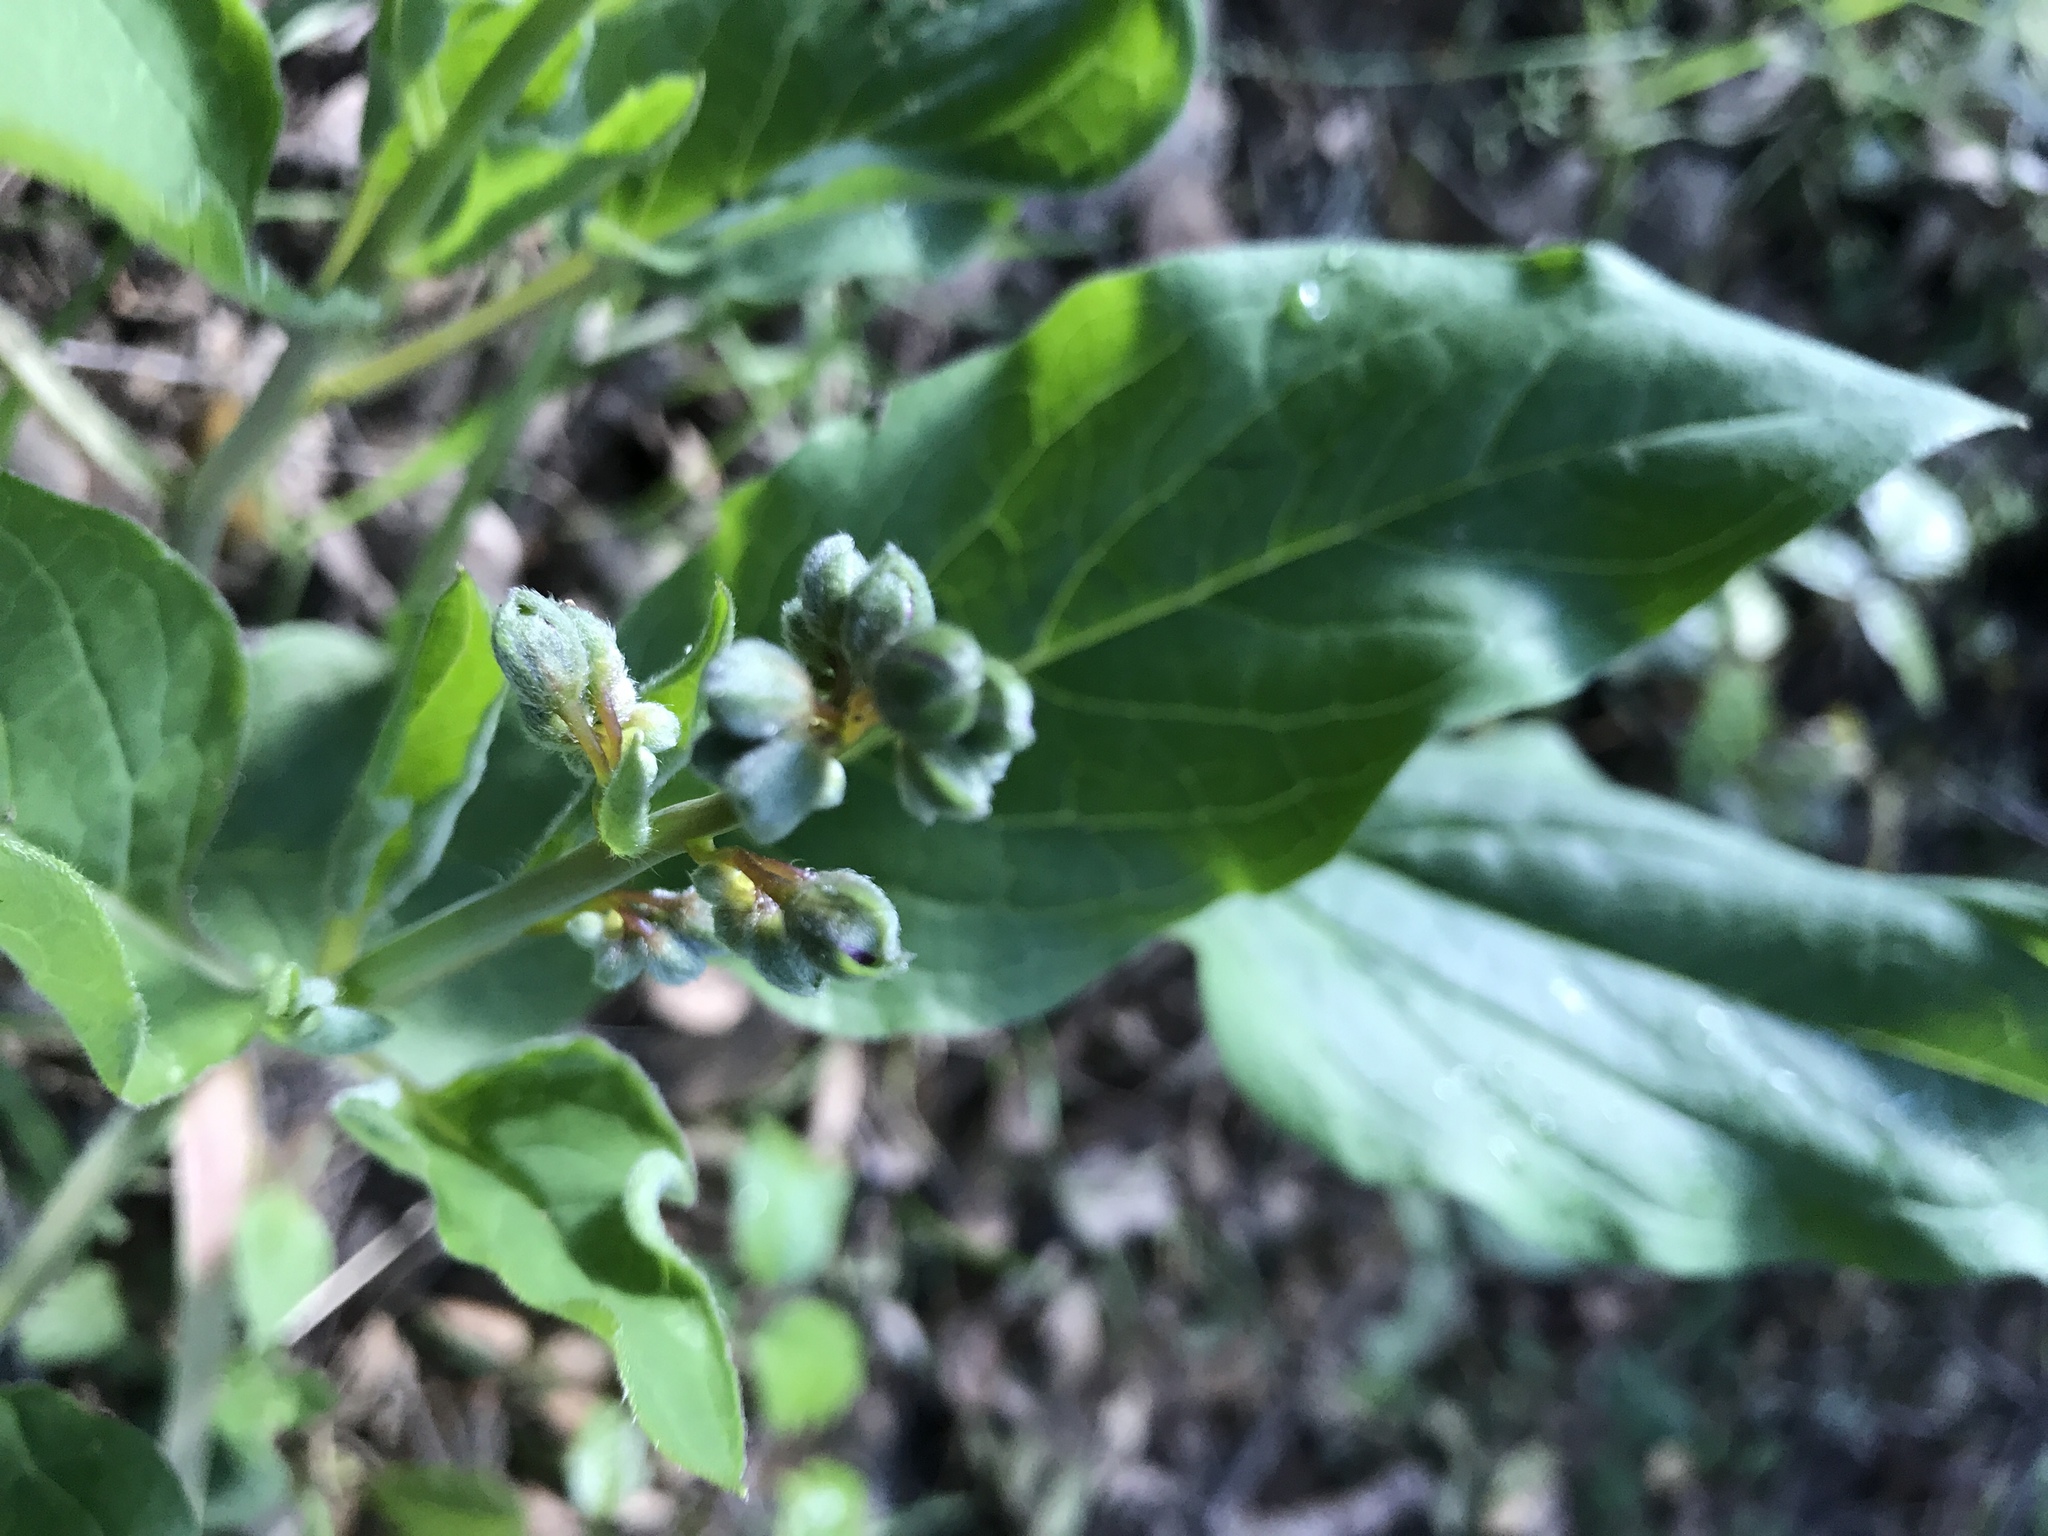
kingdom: Plantae
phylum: Tracheophyta
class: Magnoliopsida
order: Boraginales
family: Boraginaceae
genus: Adelinia
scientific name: Adelinia grande
